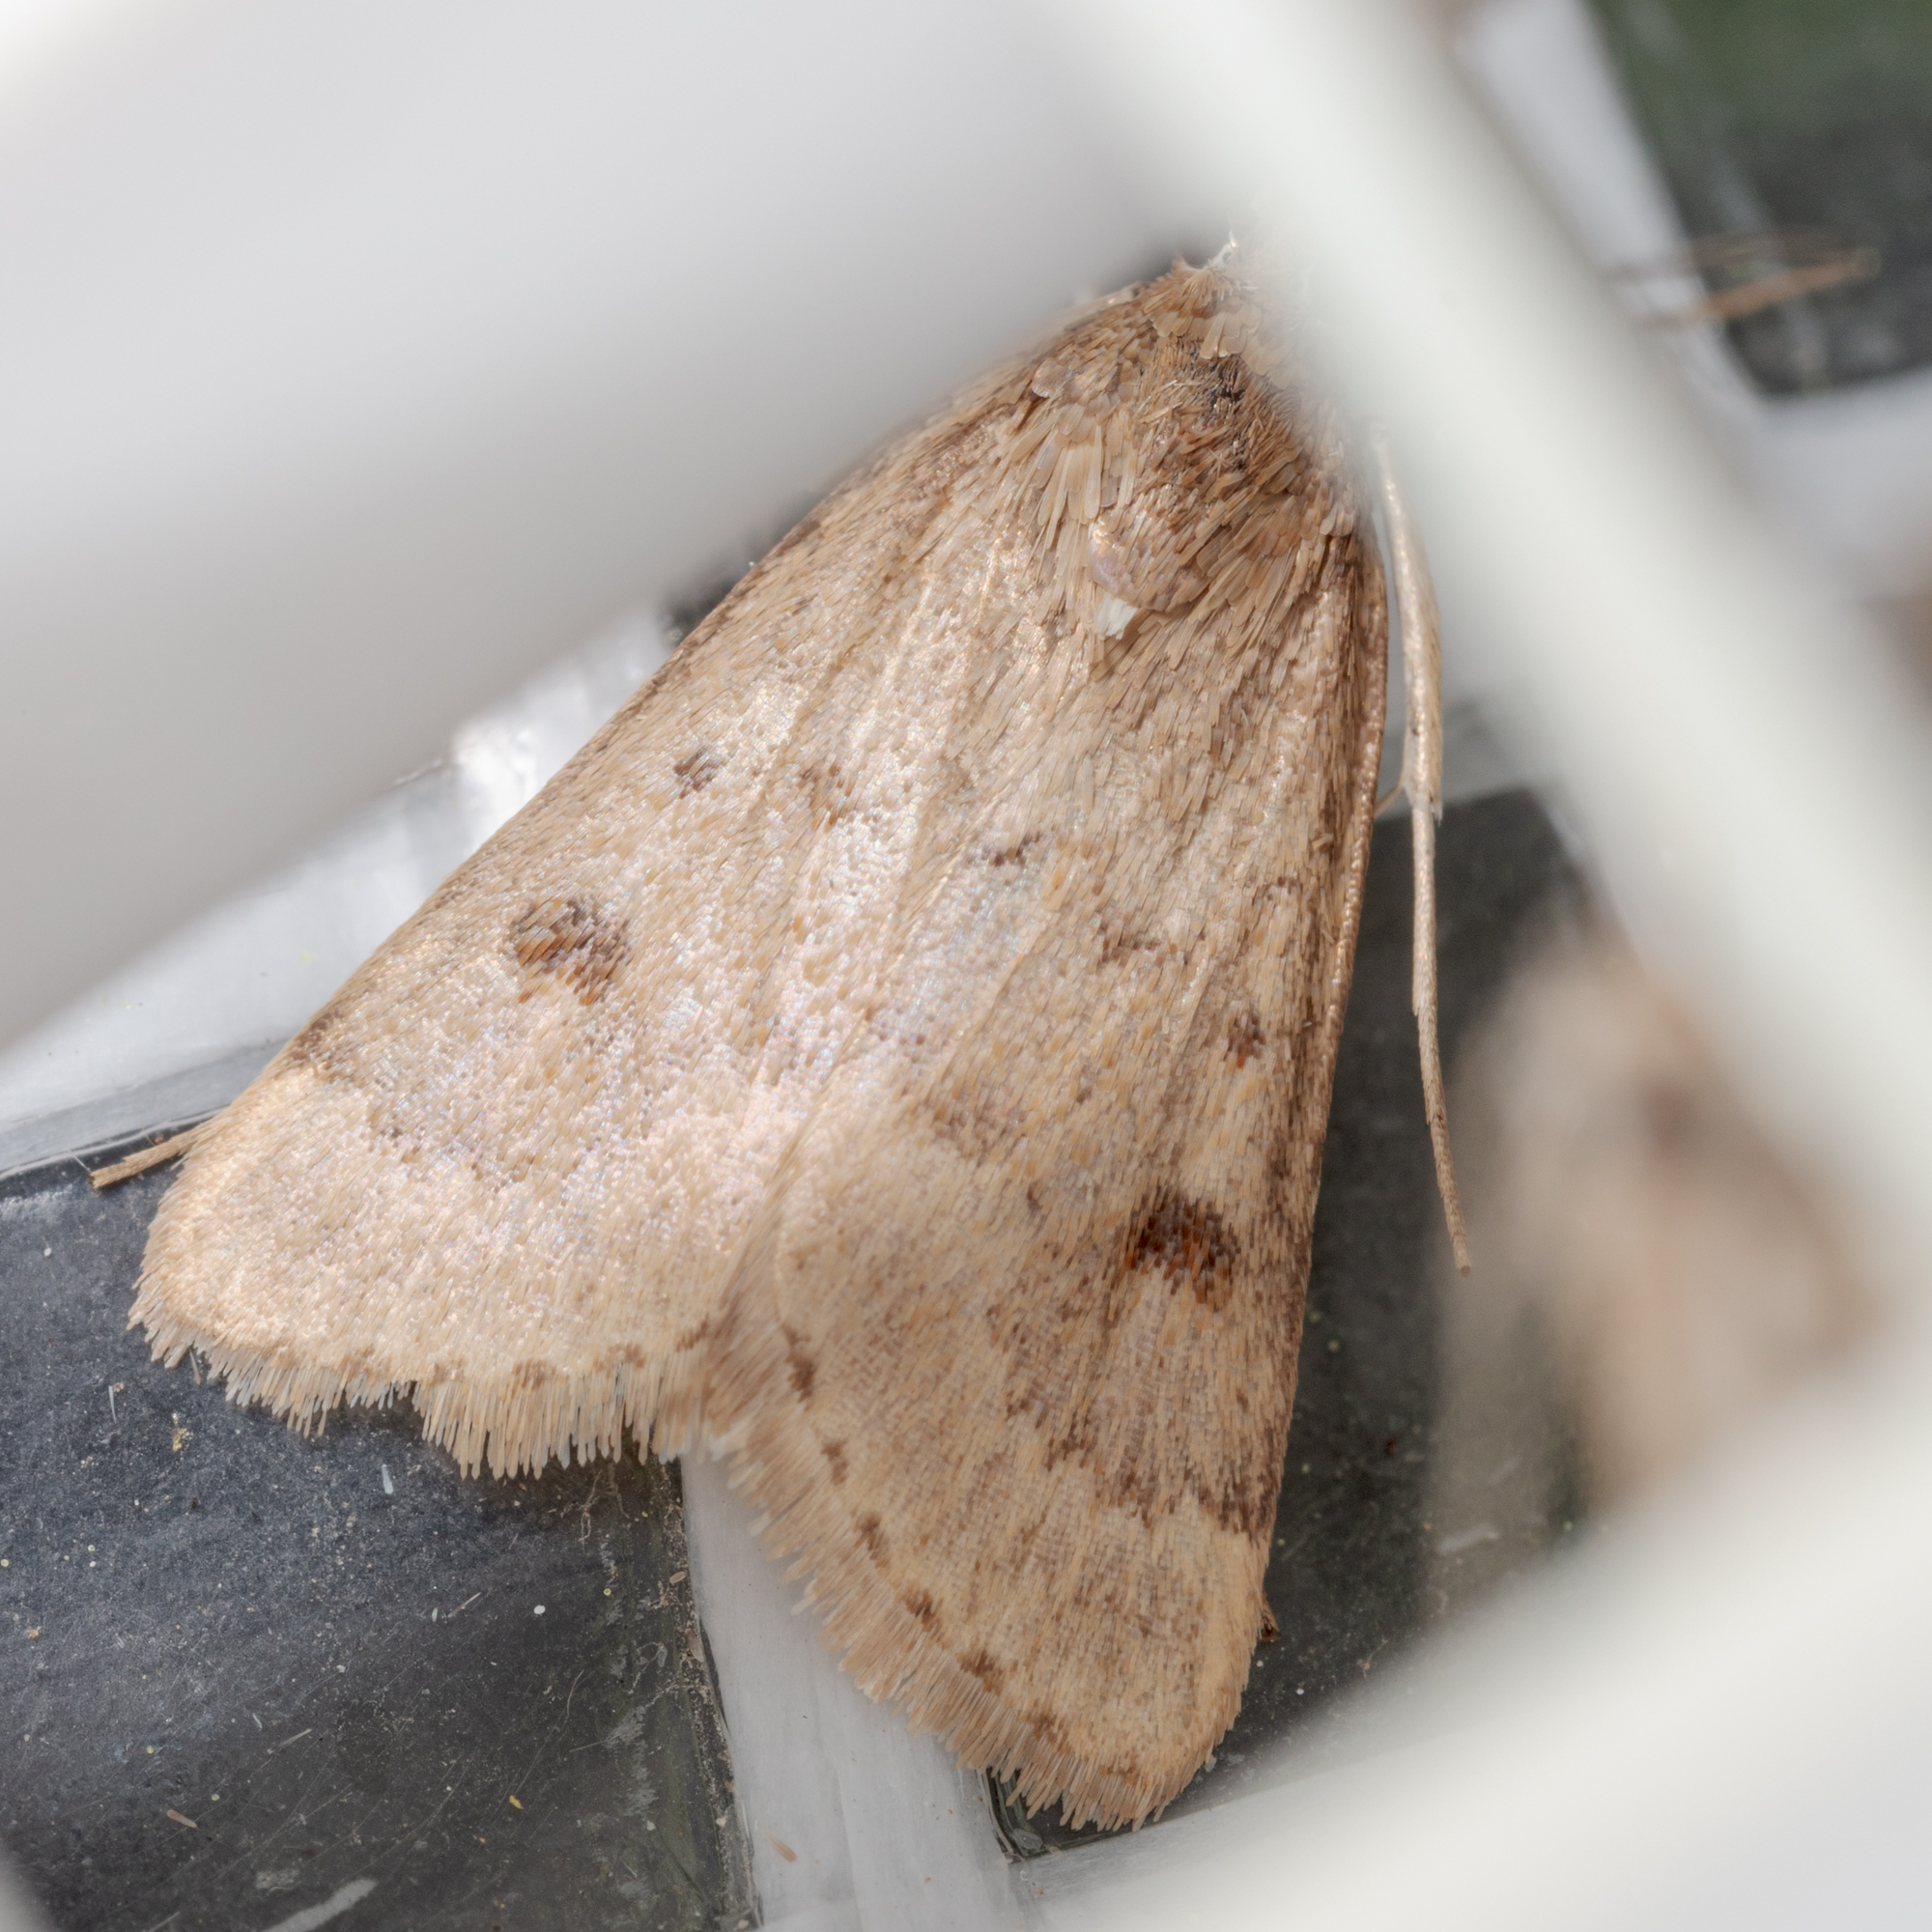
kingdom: Animalia
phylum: Arthropoda
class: Insecta
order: Lepidoptera
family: Crambidae
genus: Achyra
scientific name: Achyra rantalis
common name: Garden webworm
